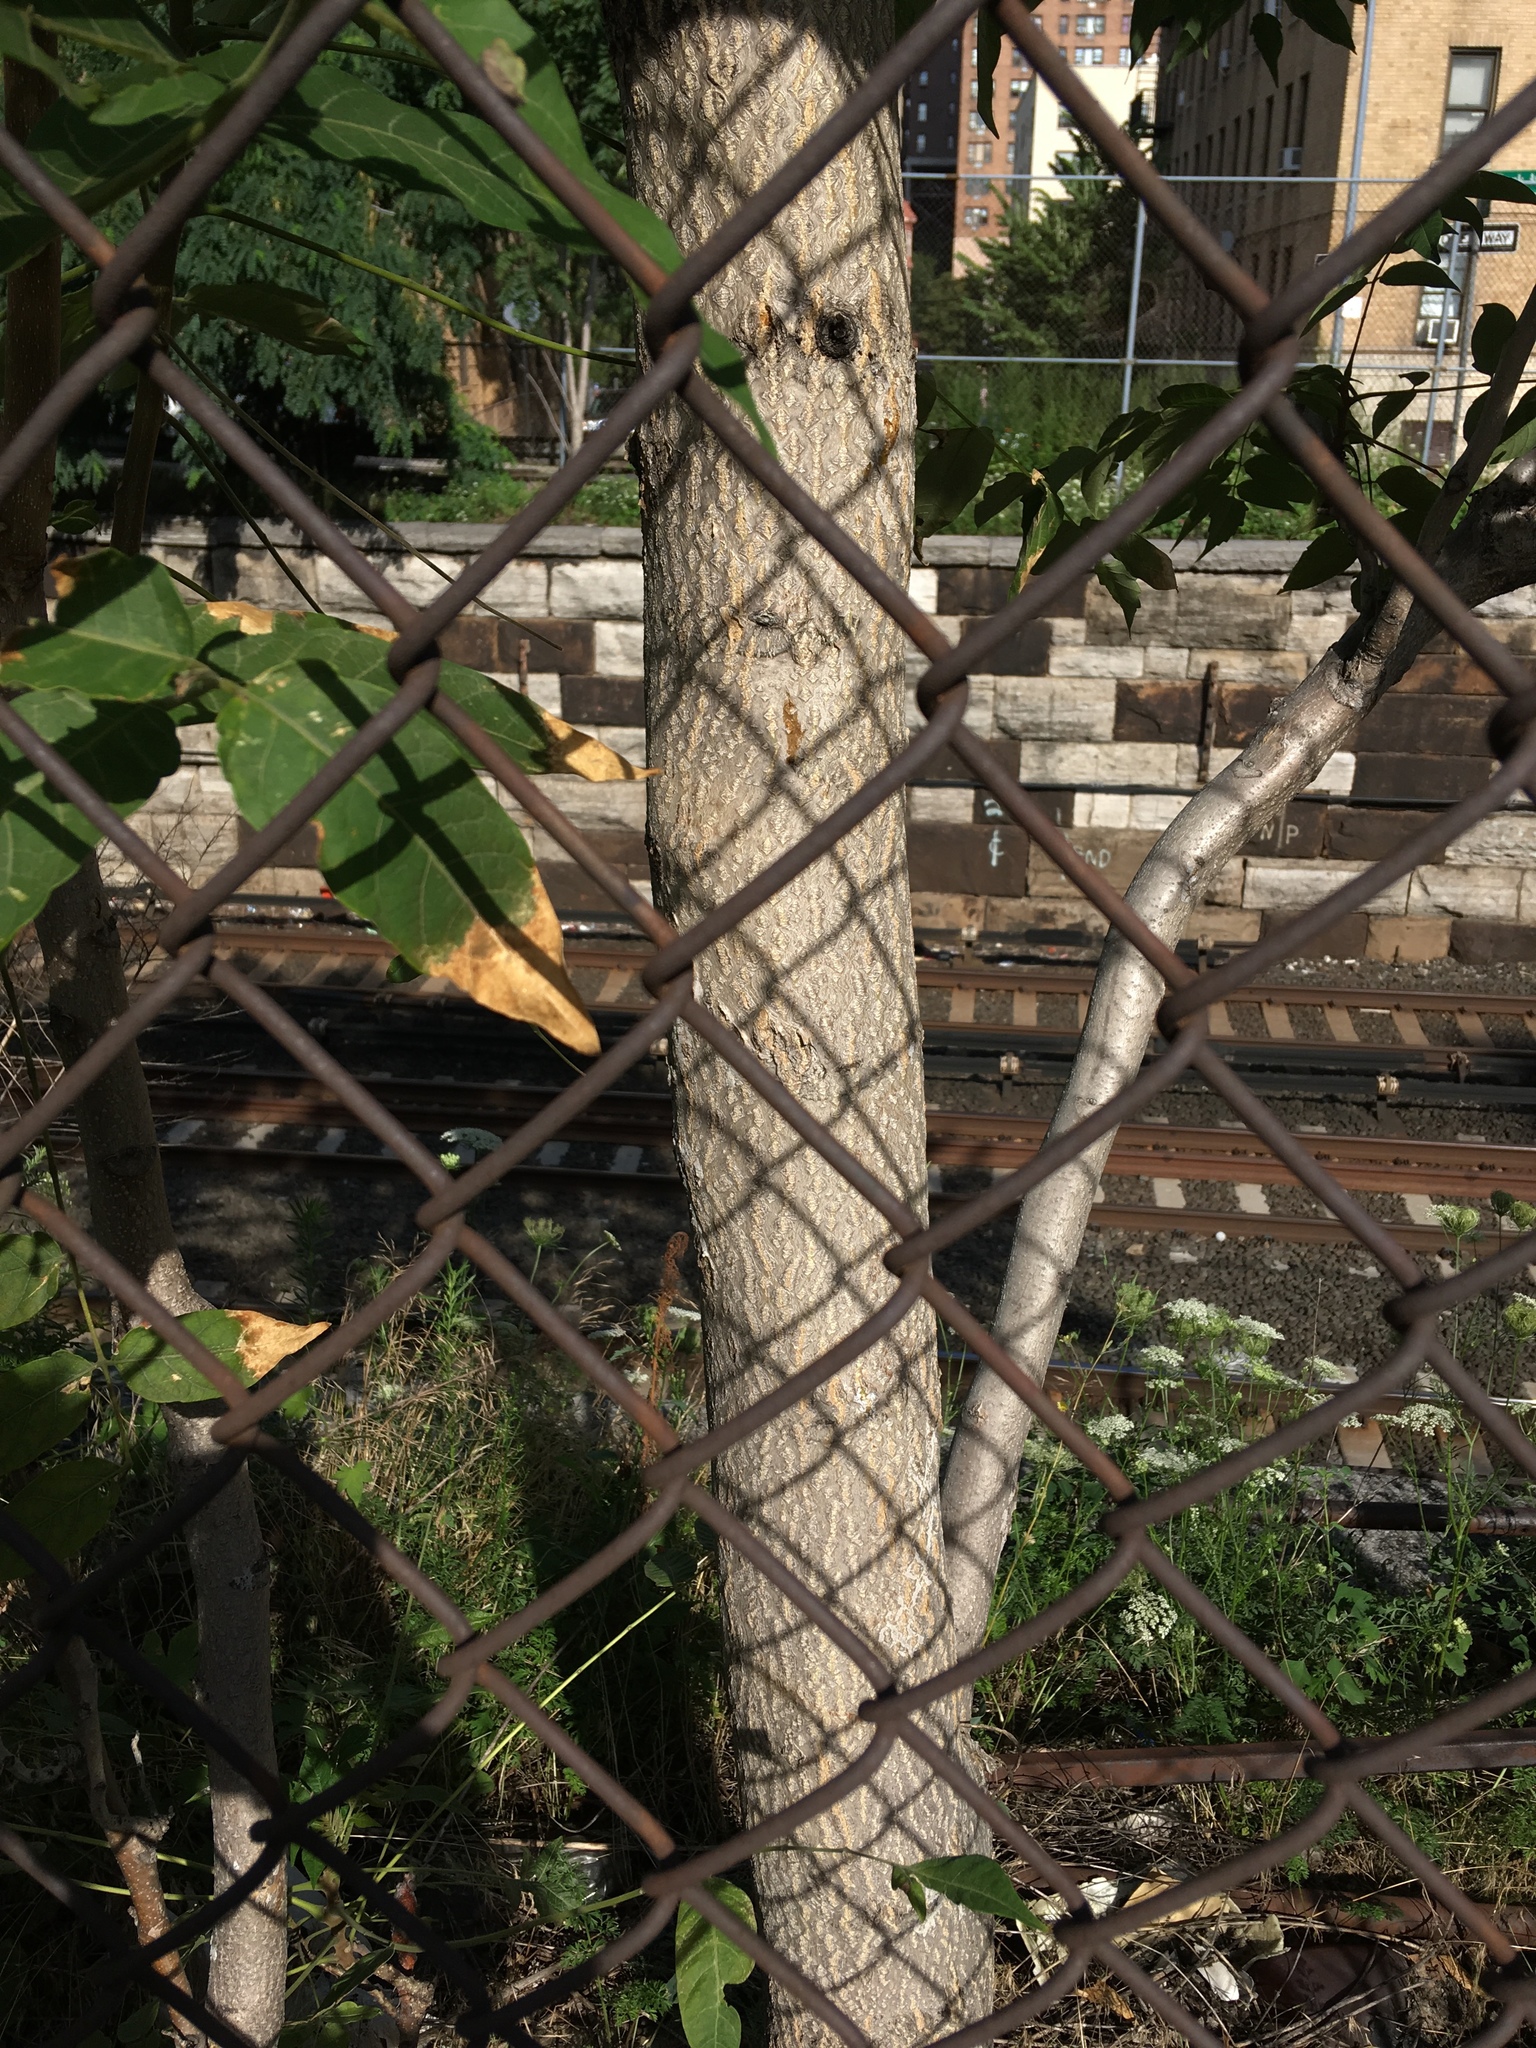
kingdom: Plantae
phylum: Tracheophyta
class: Magnoliopsida
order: Sapindales
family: Simaroubaceae
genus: Ailanthus
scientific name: Ailanthus altissima
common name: Tree-of-heaven
